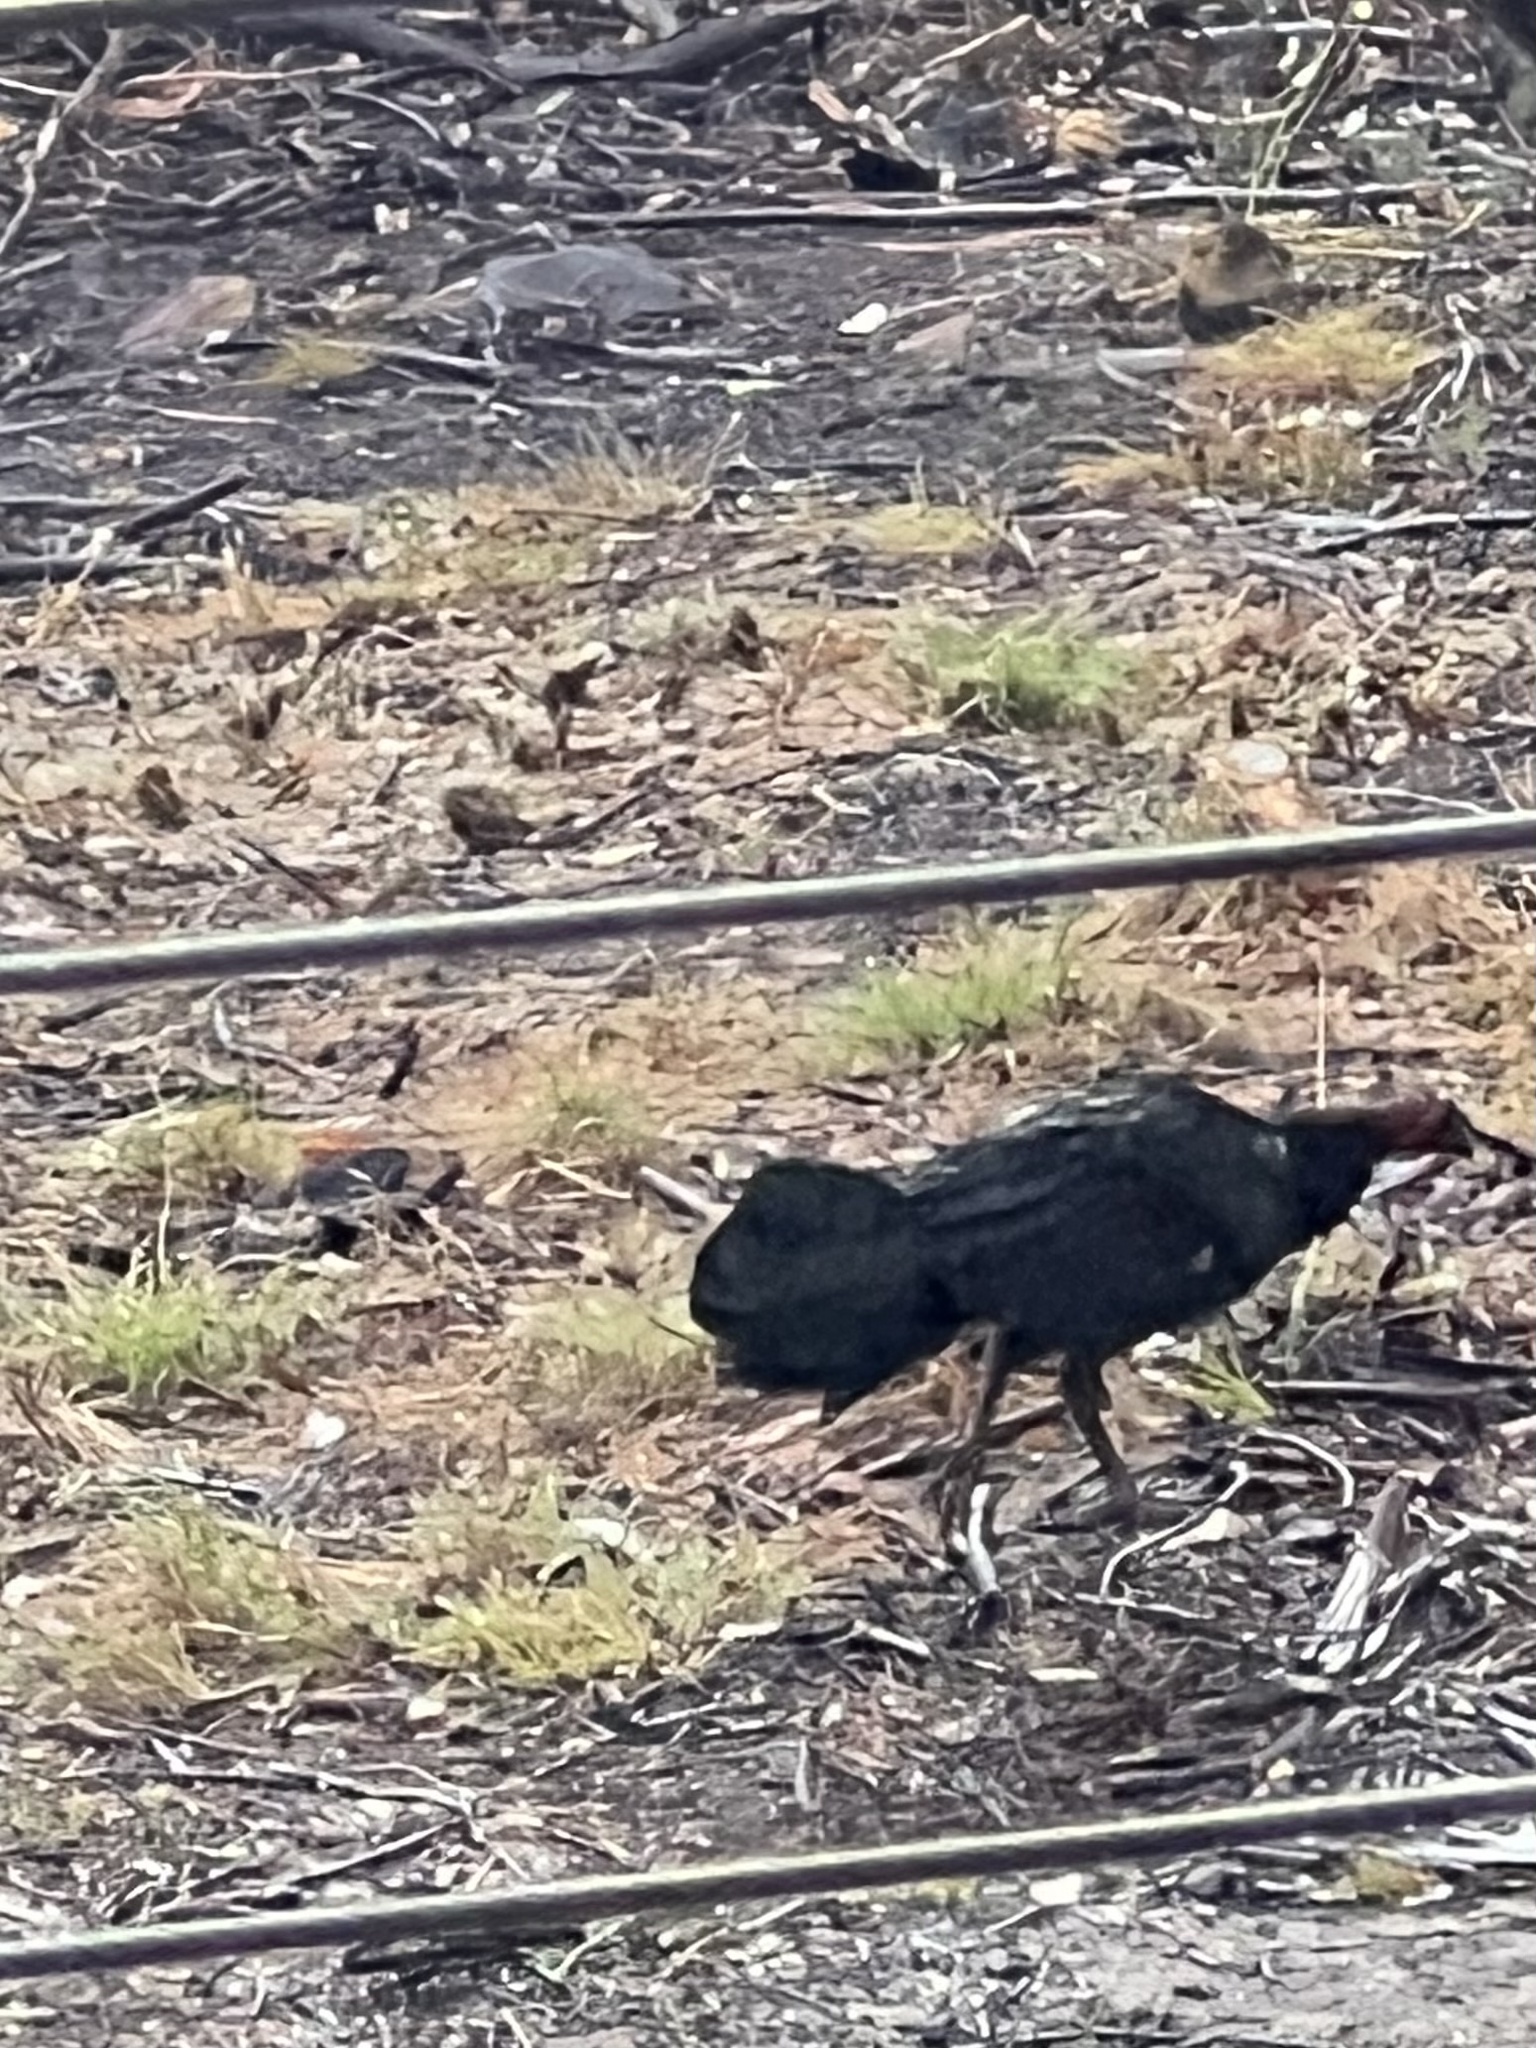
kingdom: Animalia
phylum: Chordata
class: Aves
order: Galliformes
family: Megapodiidae
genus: Alectura
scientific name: Alectura lathami
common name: Australian brushturkey
